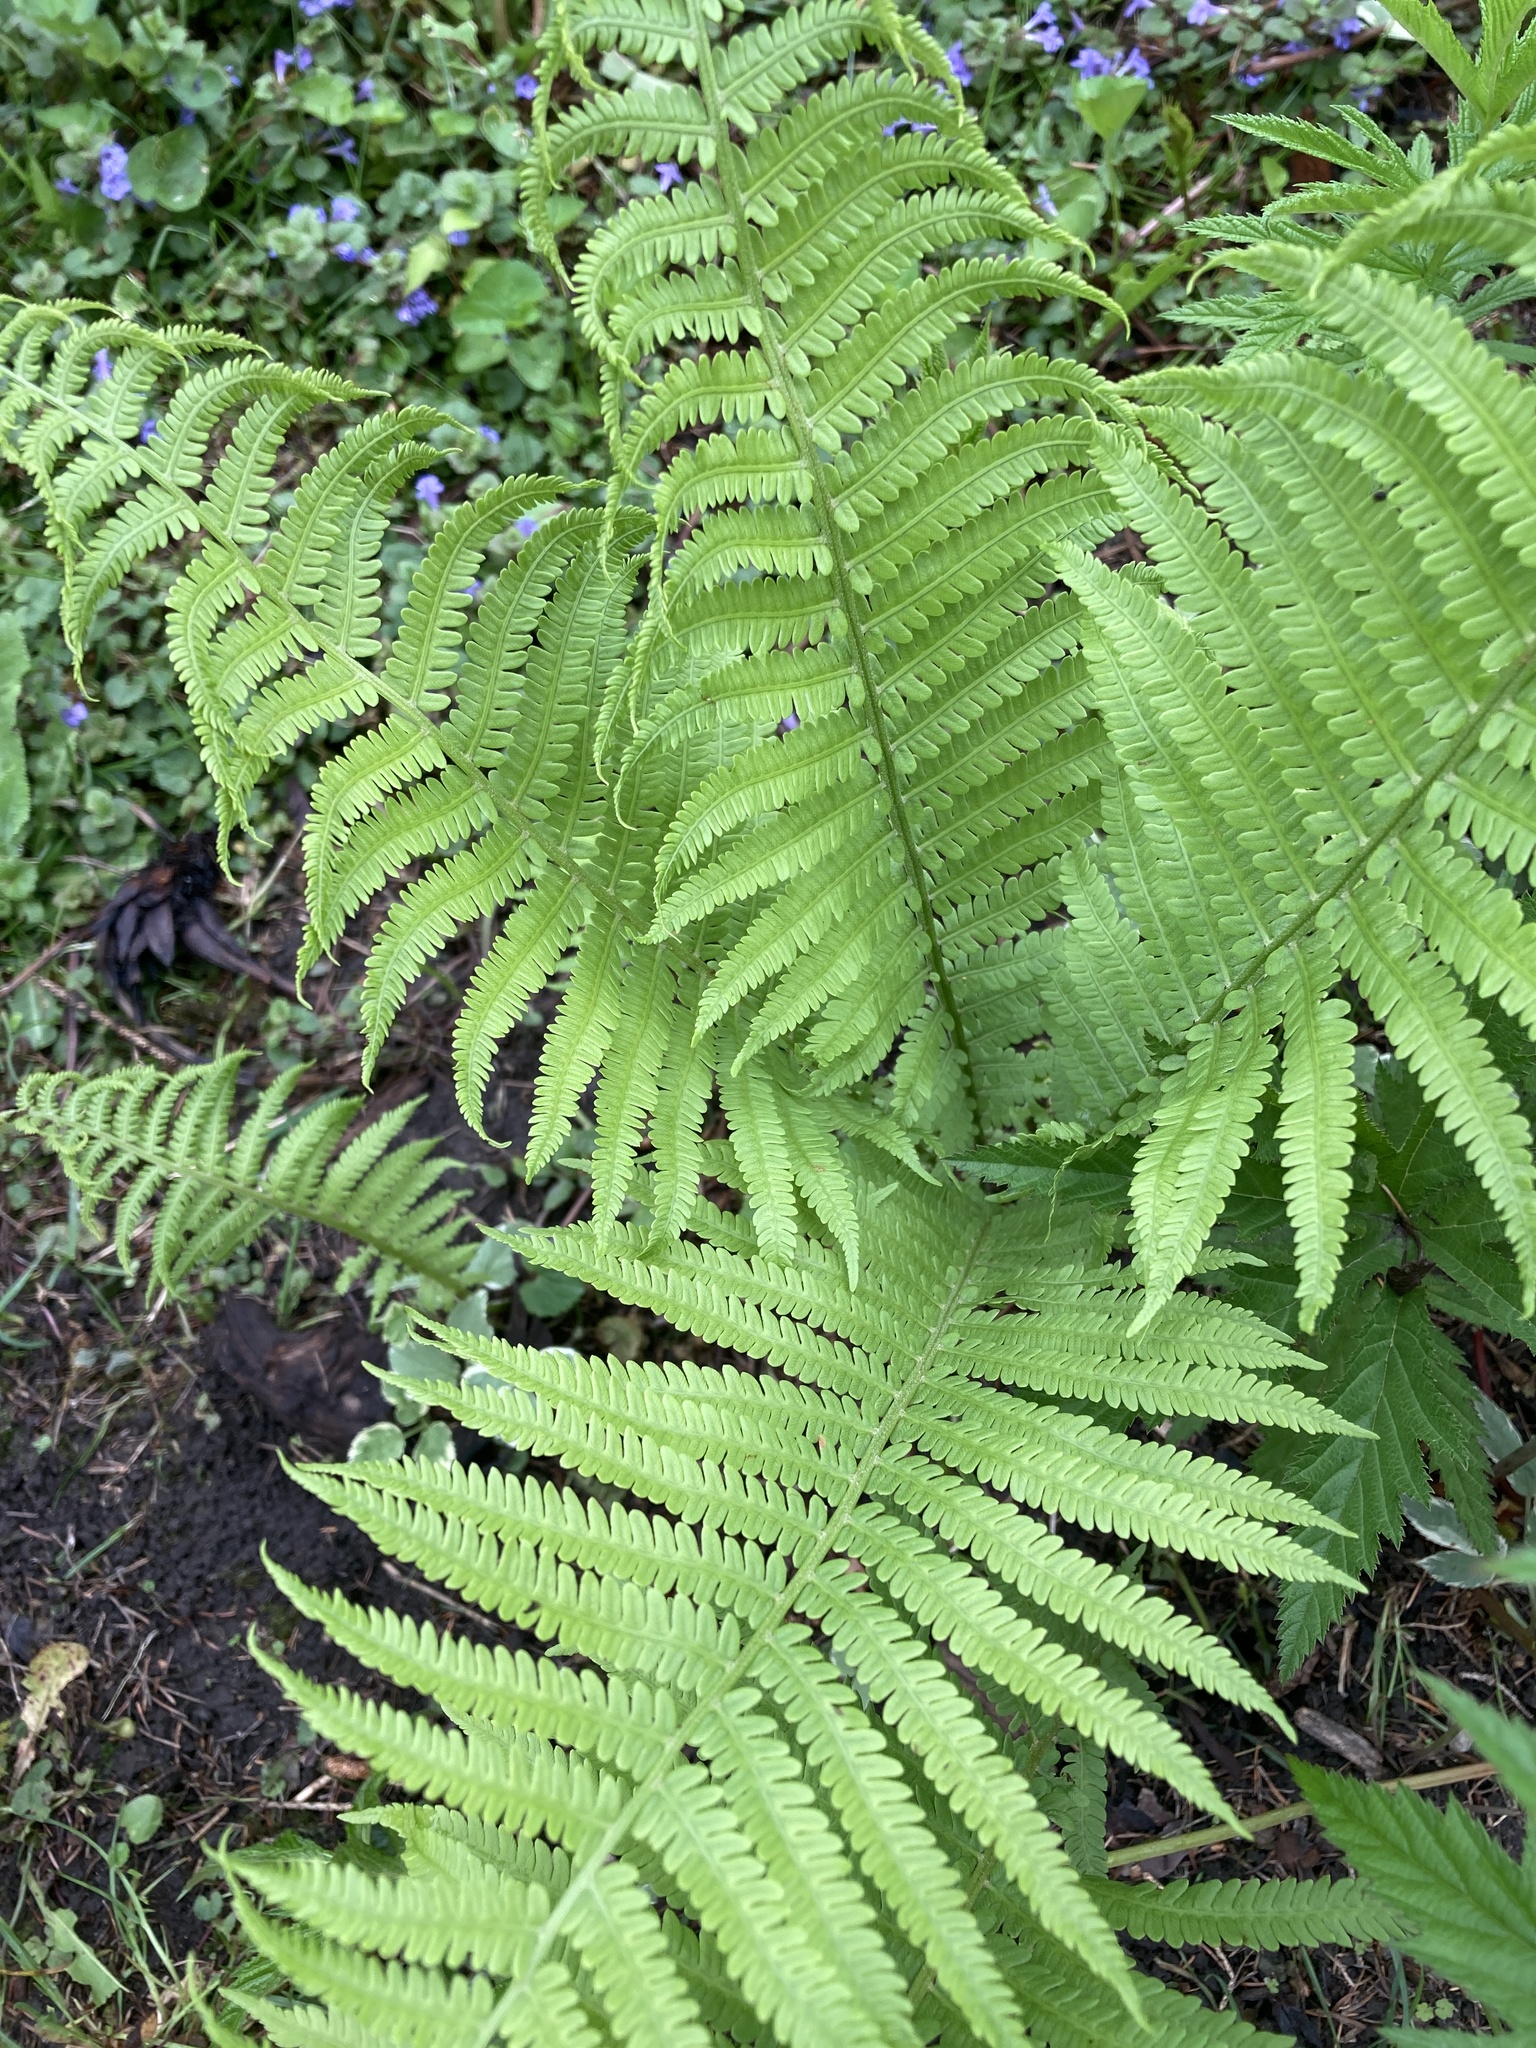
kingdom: Plantae
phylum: Tracheophyta
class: Polypodiopsida
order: Polypodiales
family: Onocleaceae
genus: Matteuccia
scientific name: Matteuccia struthiopteris
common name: Ostrich fern
